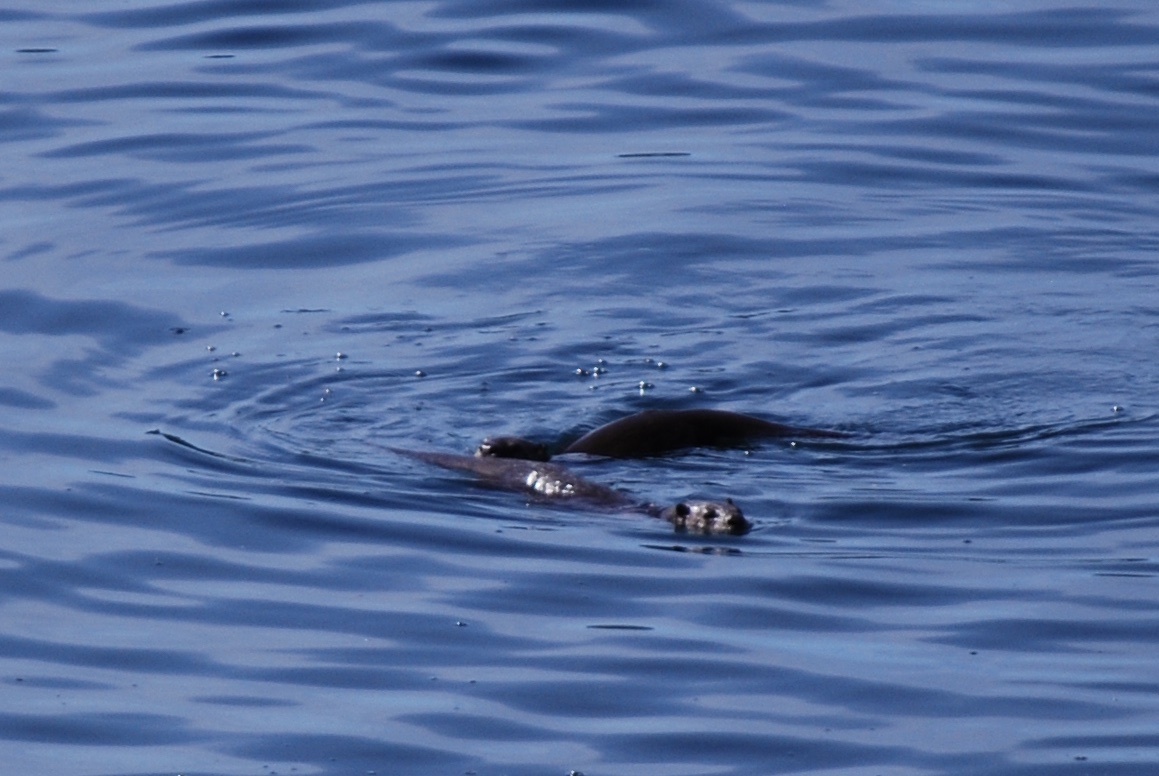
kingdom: Animalia
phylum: Chordata
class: Mammalia
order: Carnivora
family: Mustelidae
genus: Lontra
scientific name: Lontra canadensis
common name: North american river otter
